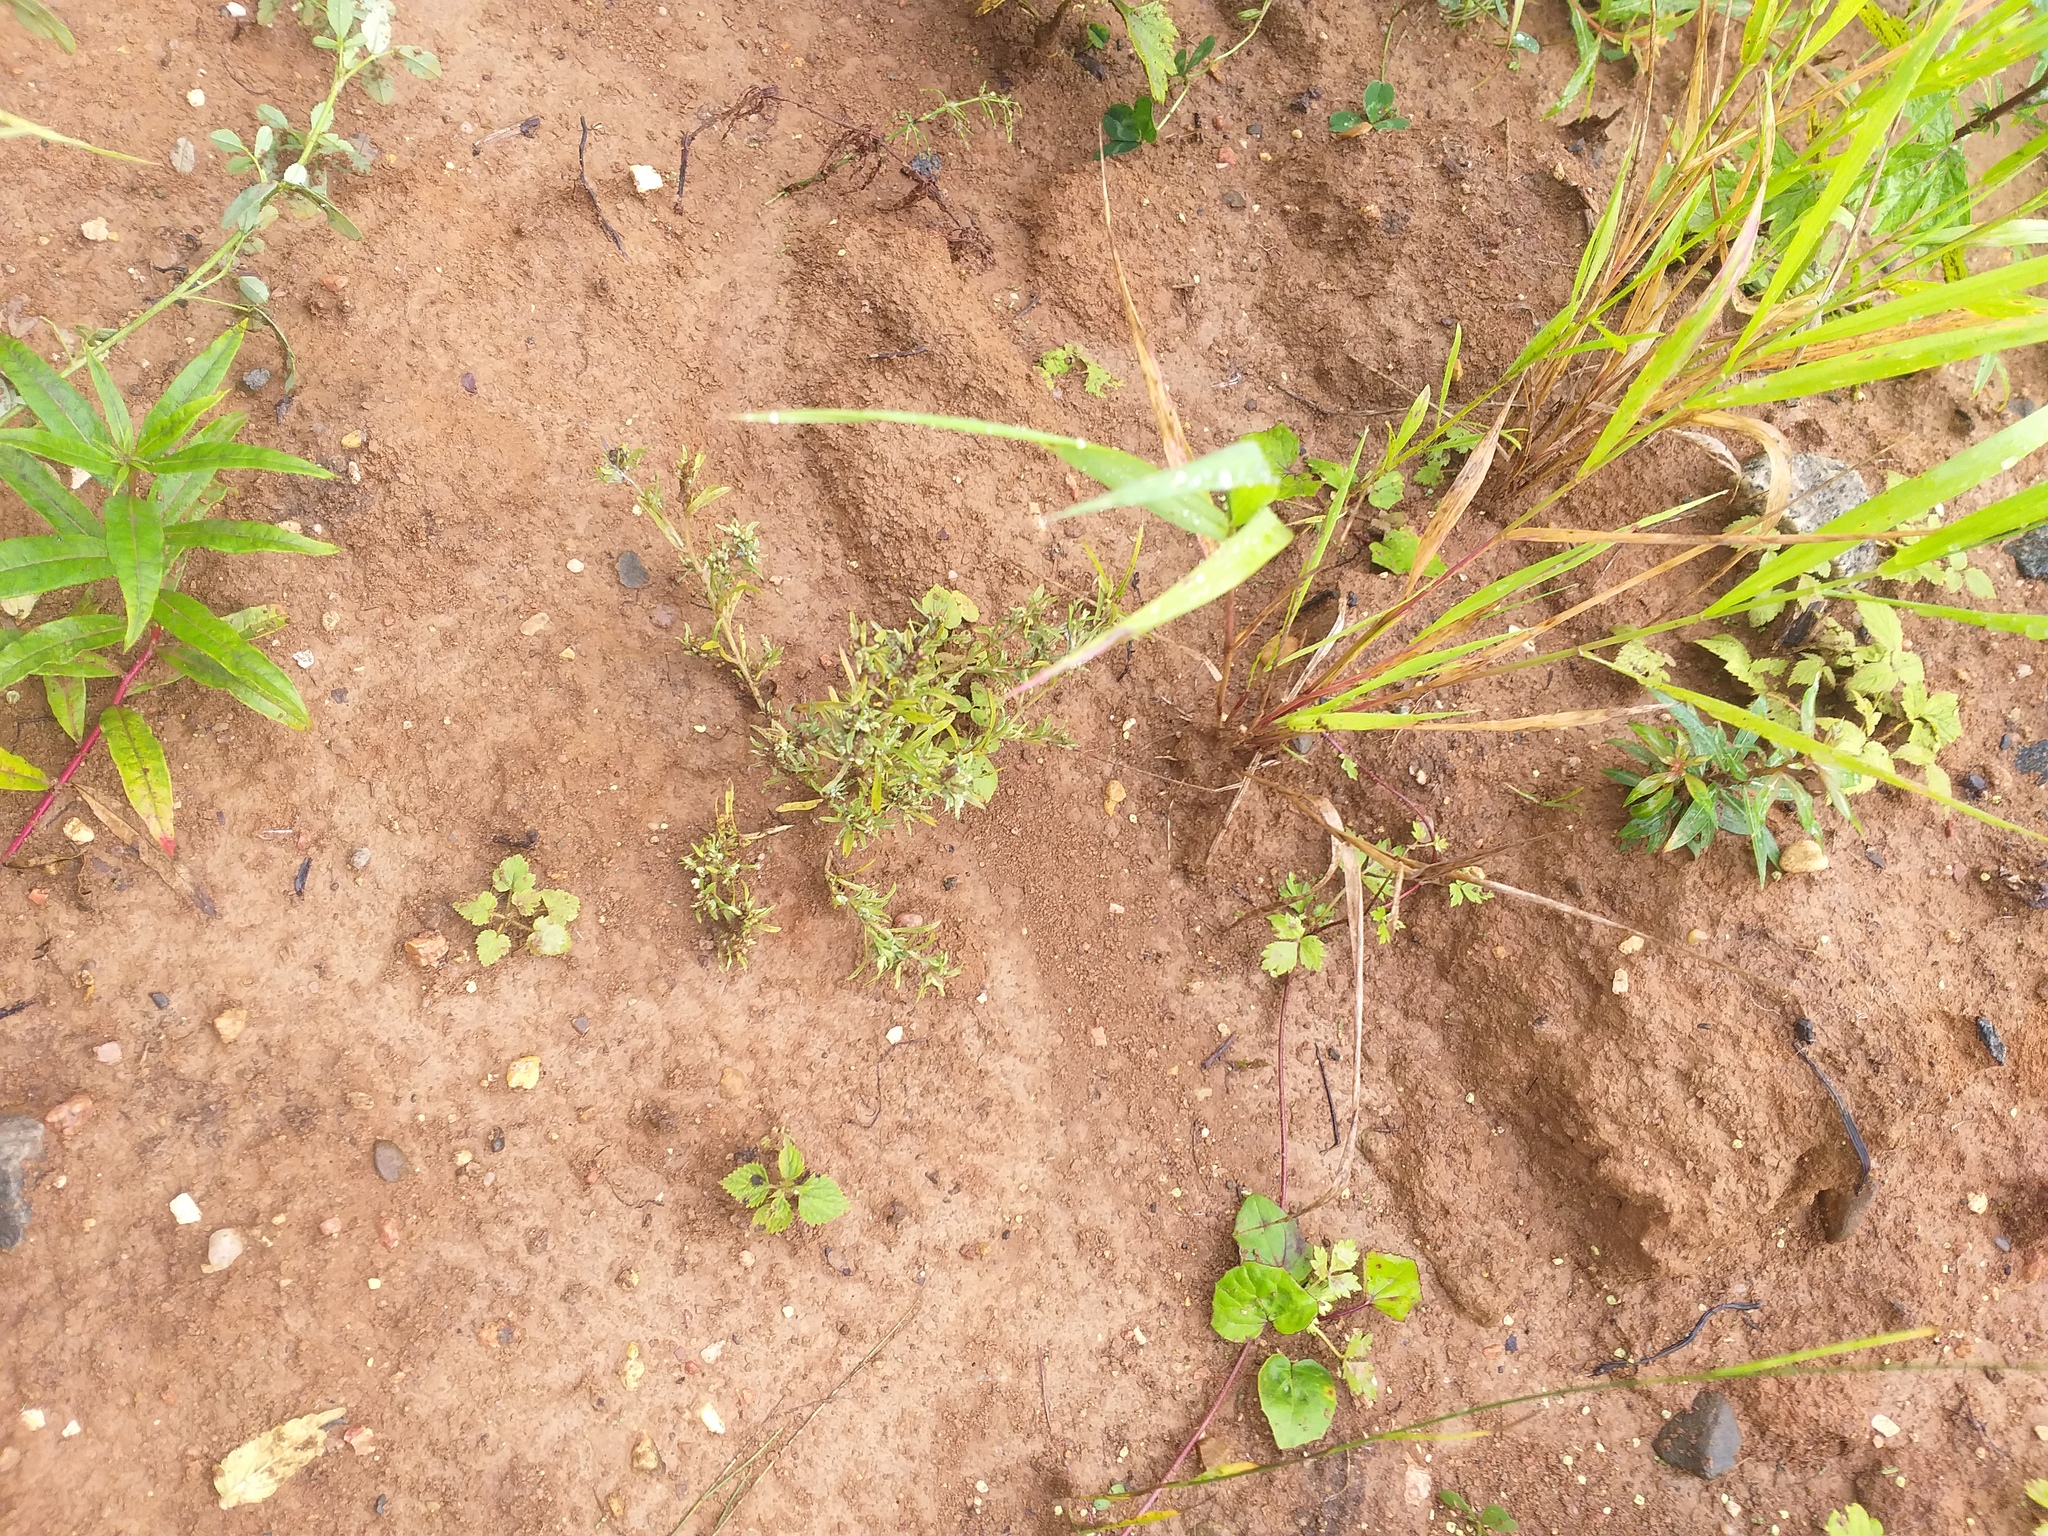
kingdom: Plantae
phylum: Tracheophyta
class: Magnoliopsida
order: Asterales
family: Asteraceae
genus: Gnaphalium
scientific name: Gnaphalium uliginosum
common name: Marsh cudweed
